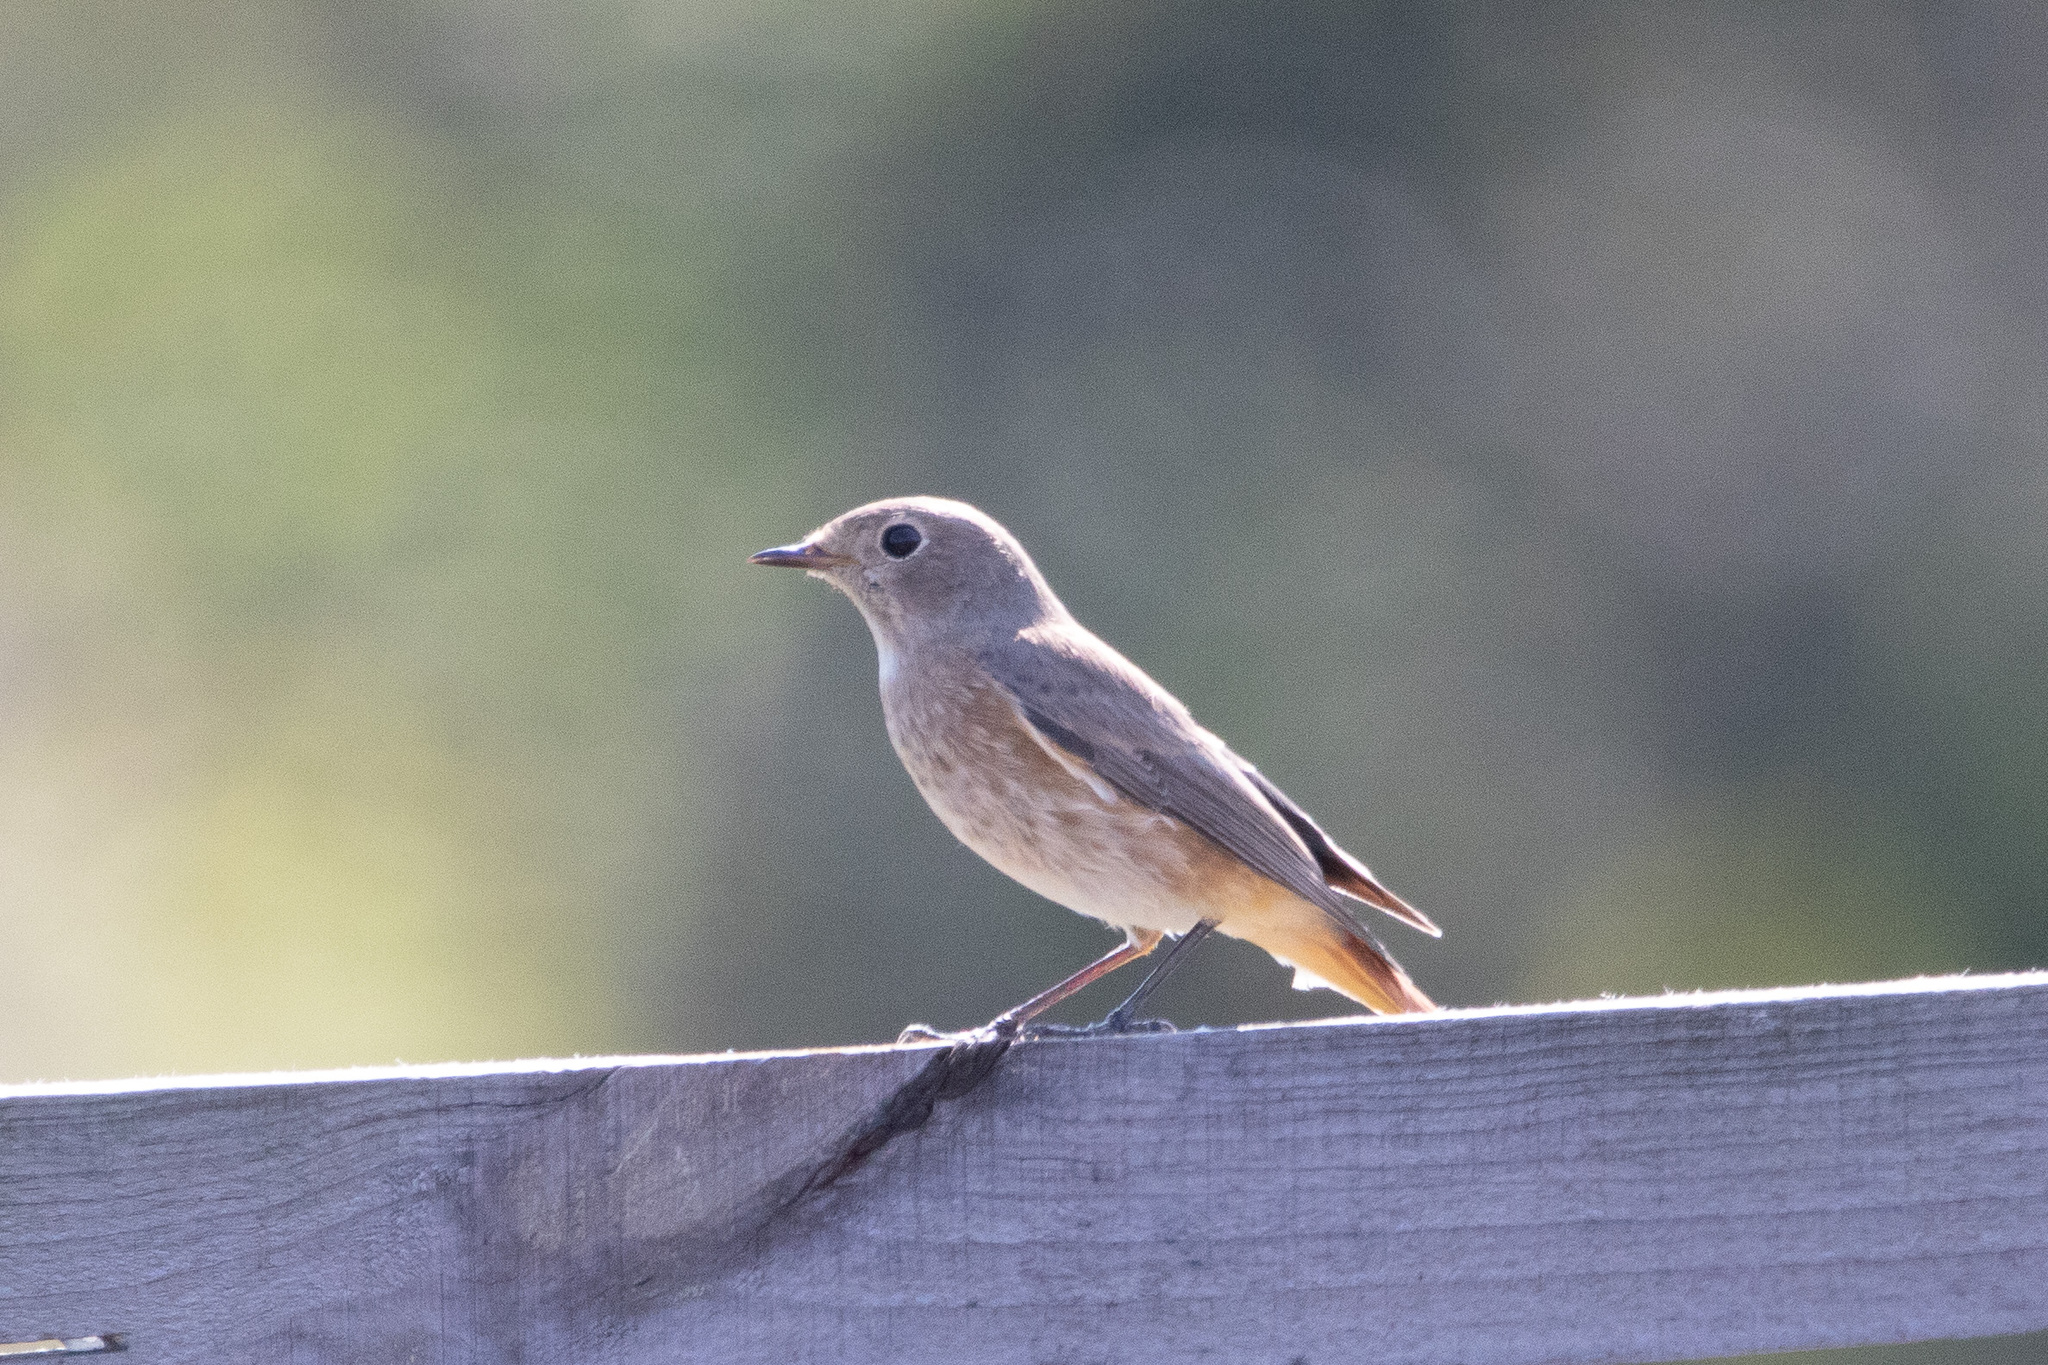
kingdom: Animalia
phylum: Chordata
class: Aves
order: Passeriformes
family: Muscicapidae
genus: Phoenicurus
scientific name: Phoenicurus phoenicurus
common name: Common redstart
